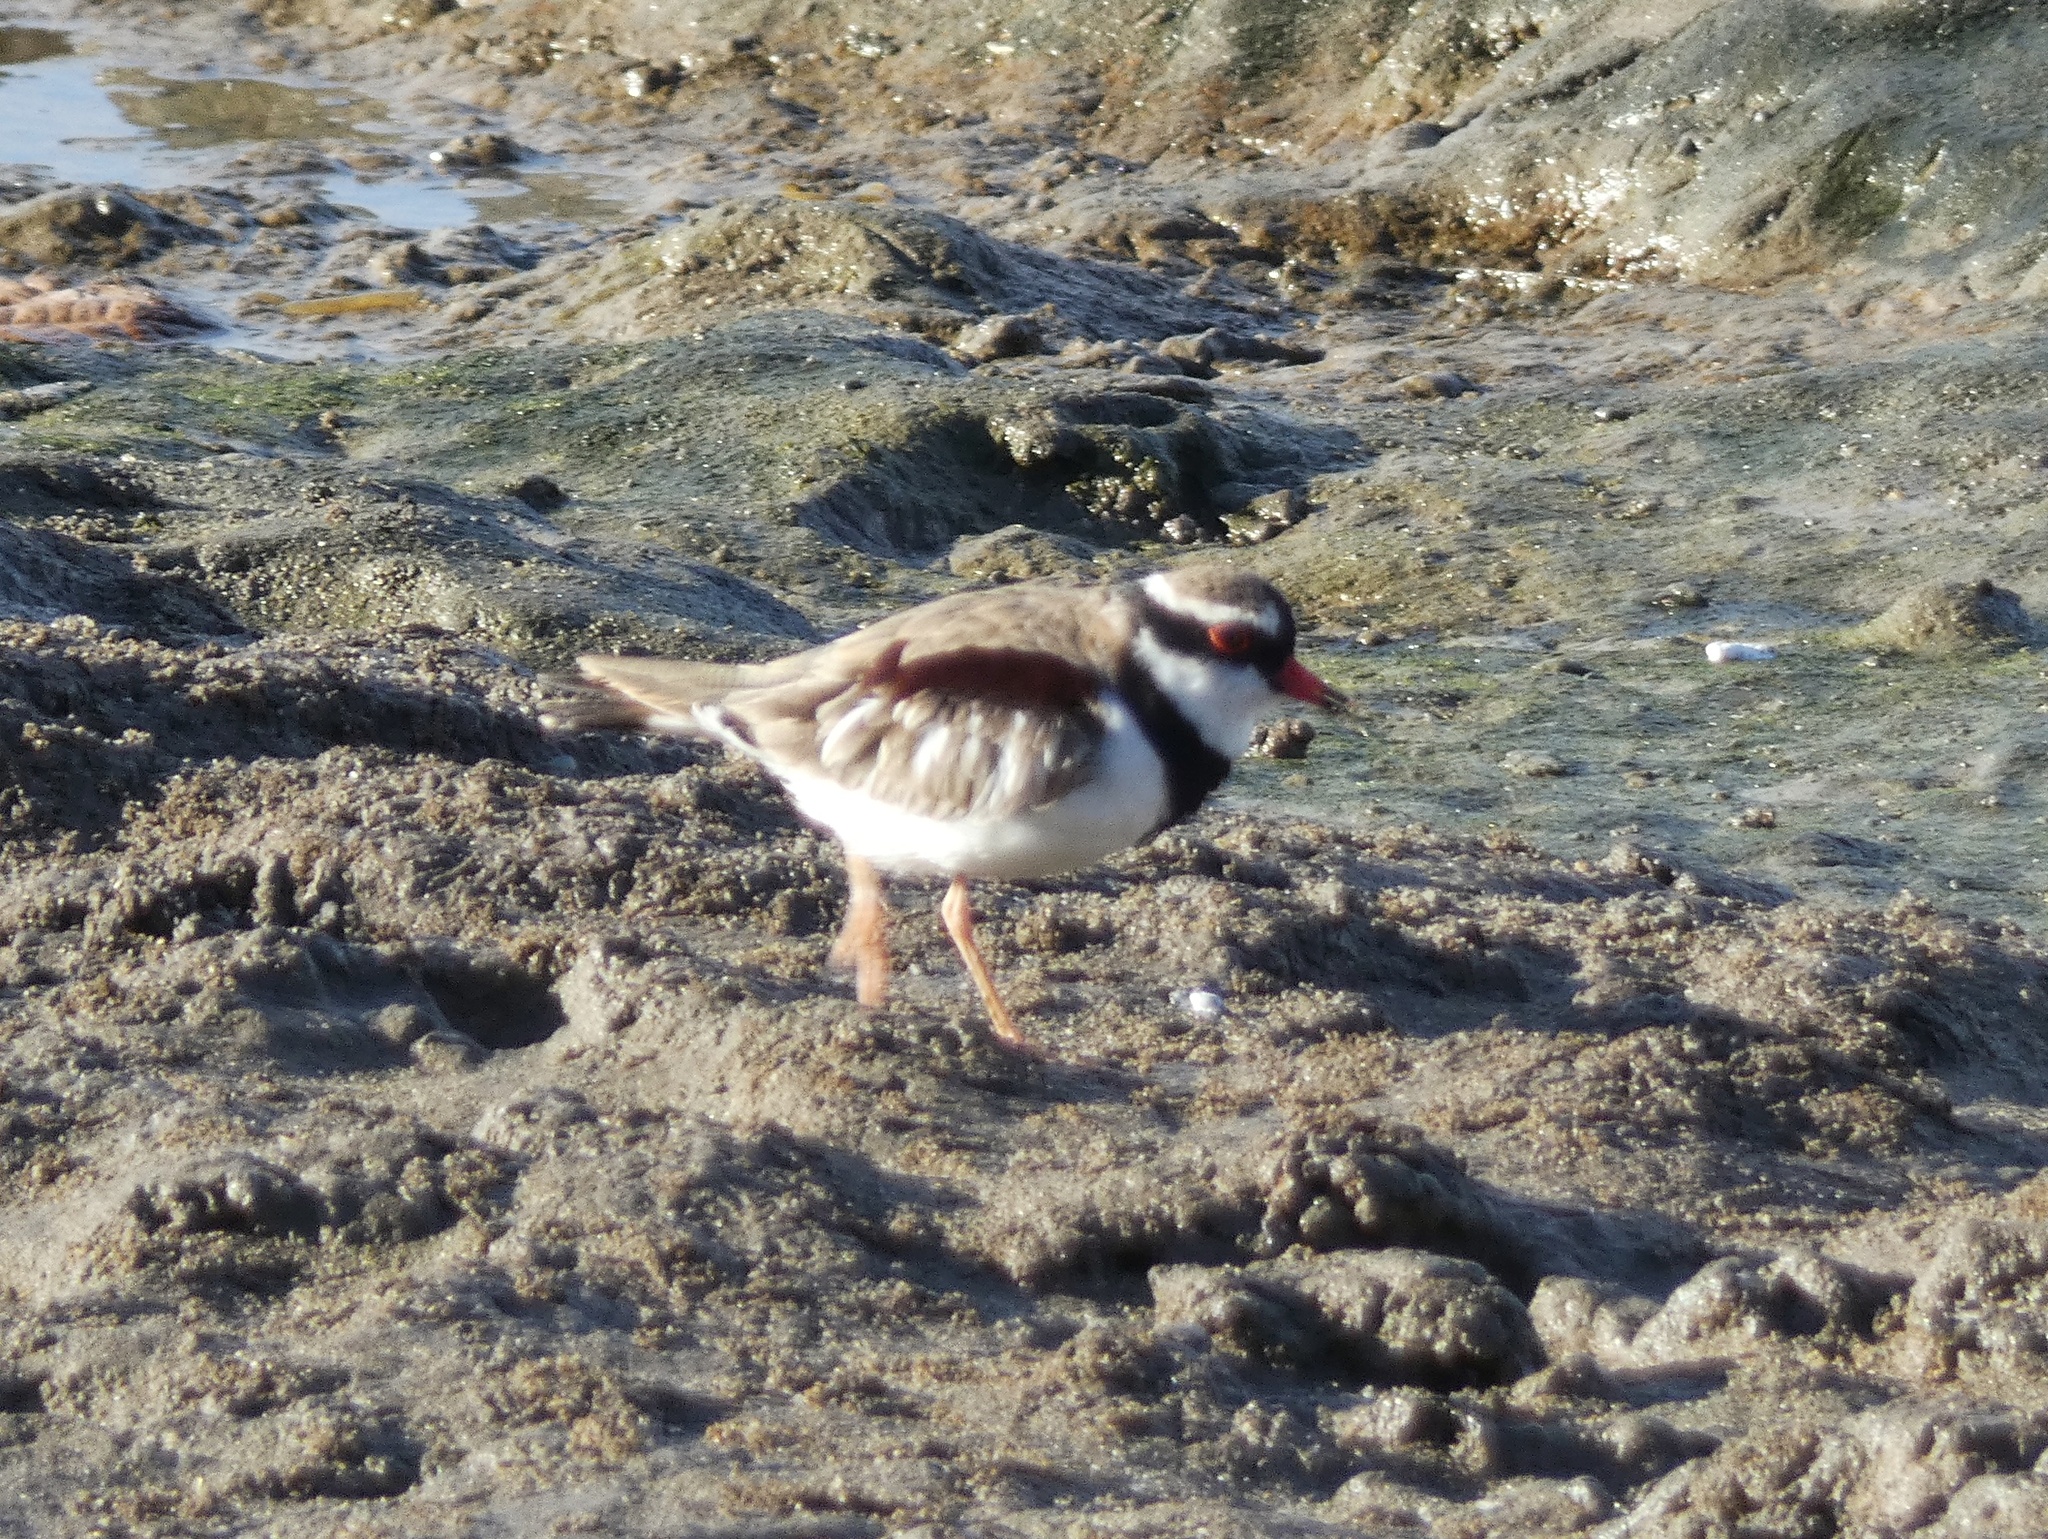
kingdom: Animalia
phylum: Chordata
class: Aves
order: Charadriiformes
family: Charadriidae
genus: Elseyornis
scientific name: Elseyornis melanops
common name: Black-fronted dotterel
